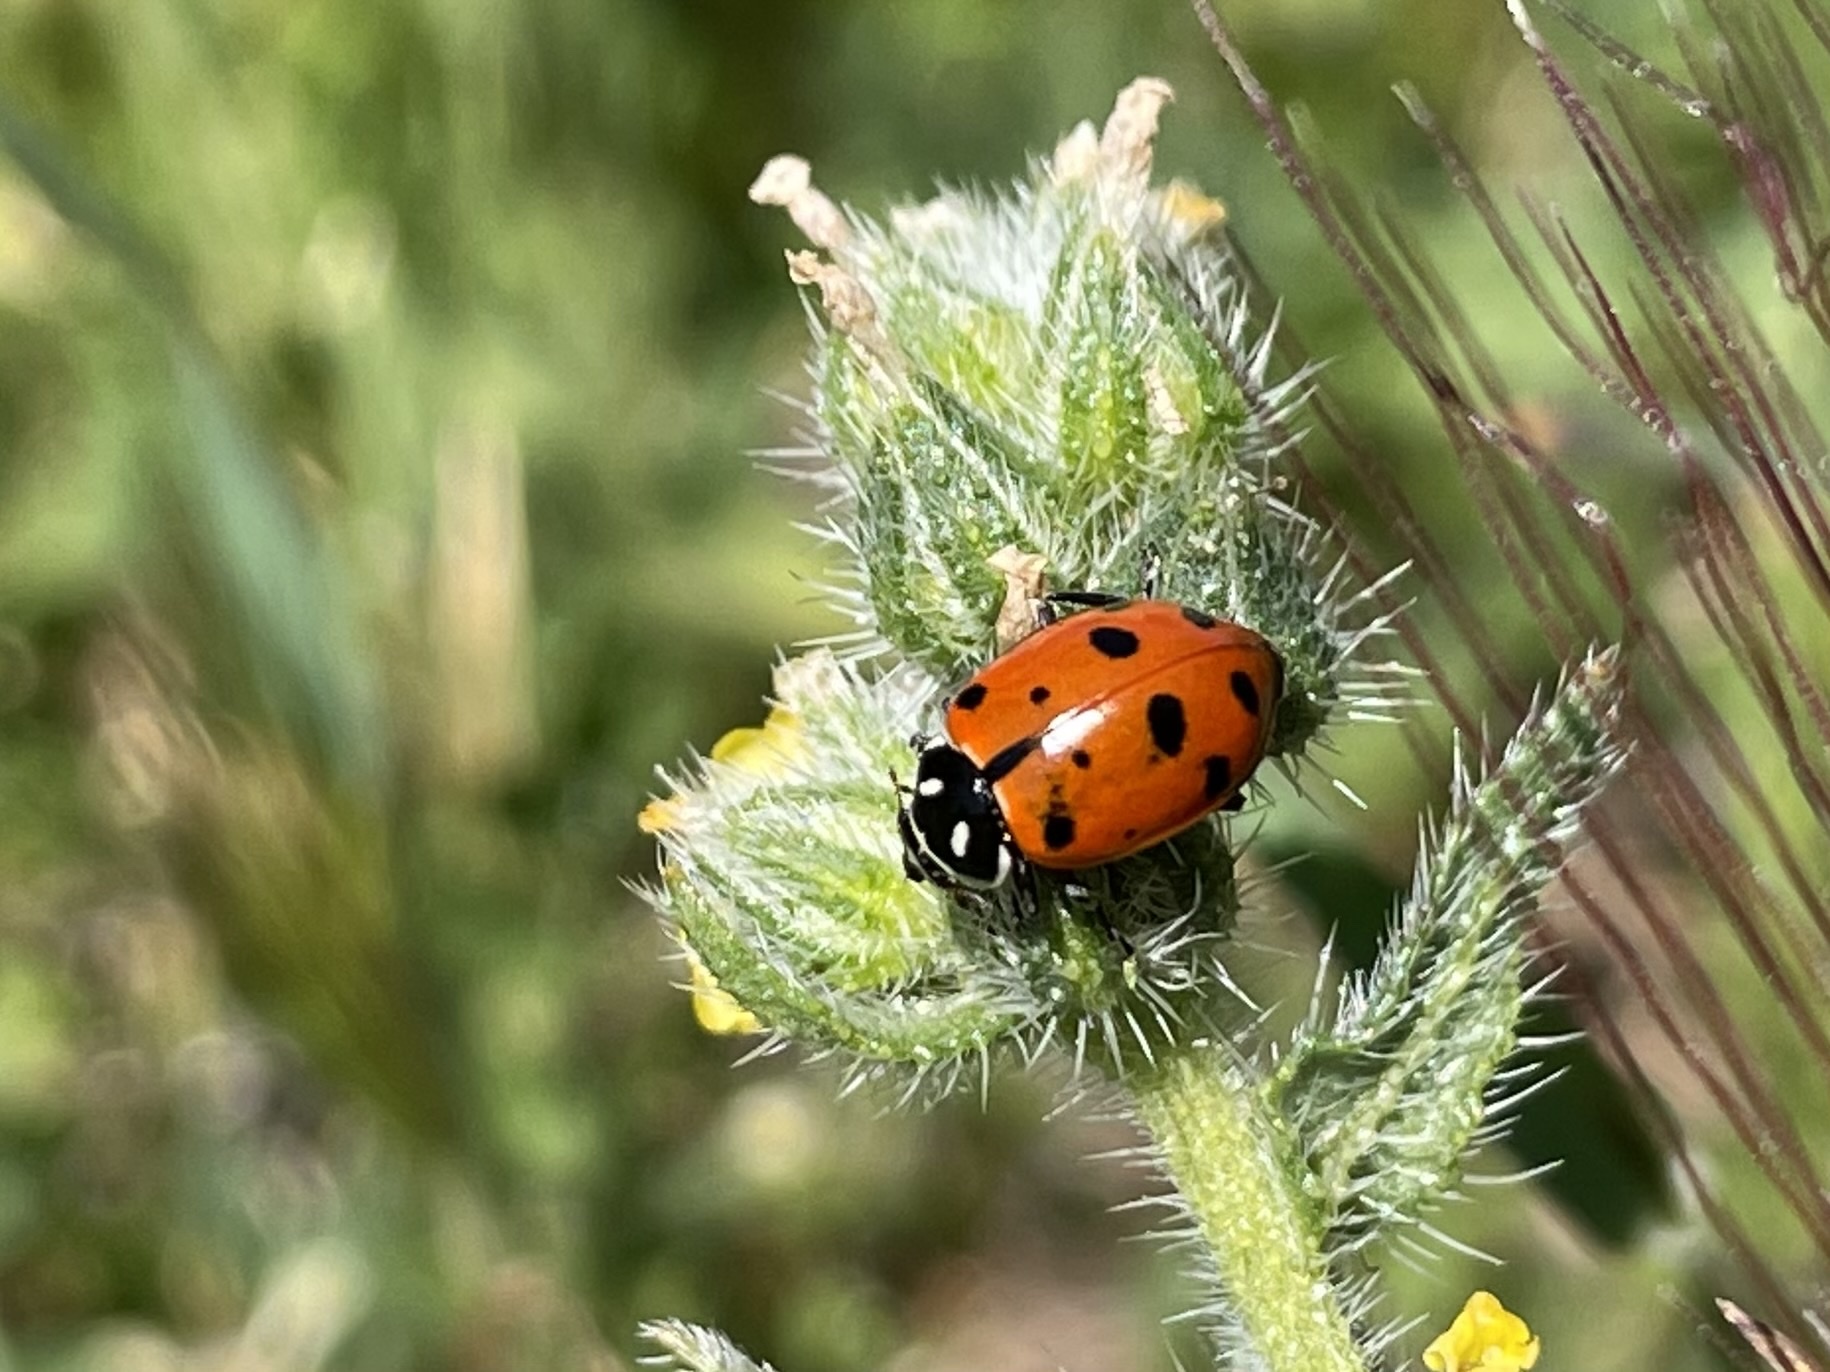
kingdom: Animalia
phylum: Arthropoda
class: Insecta
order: Coleoptera
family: Coccinellidae
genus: Hippodamia
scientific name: Hippodamia convergens
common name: Convergent lady beetle
